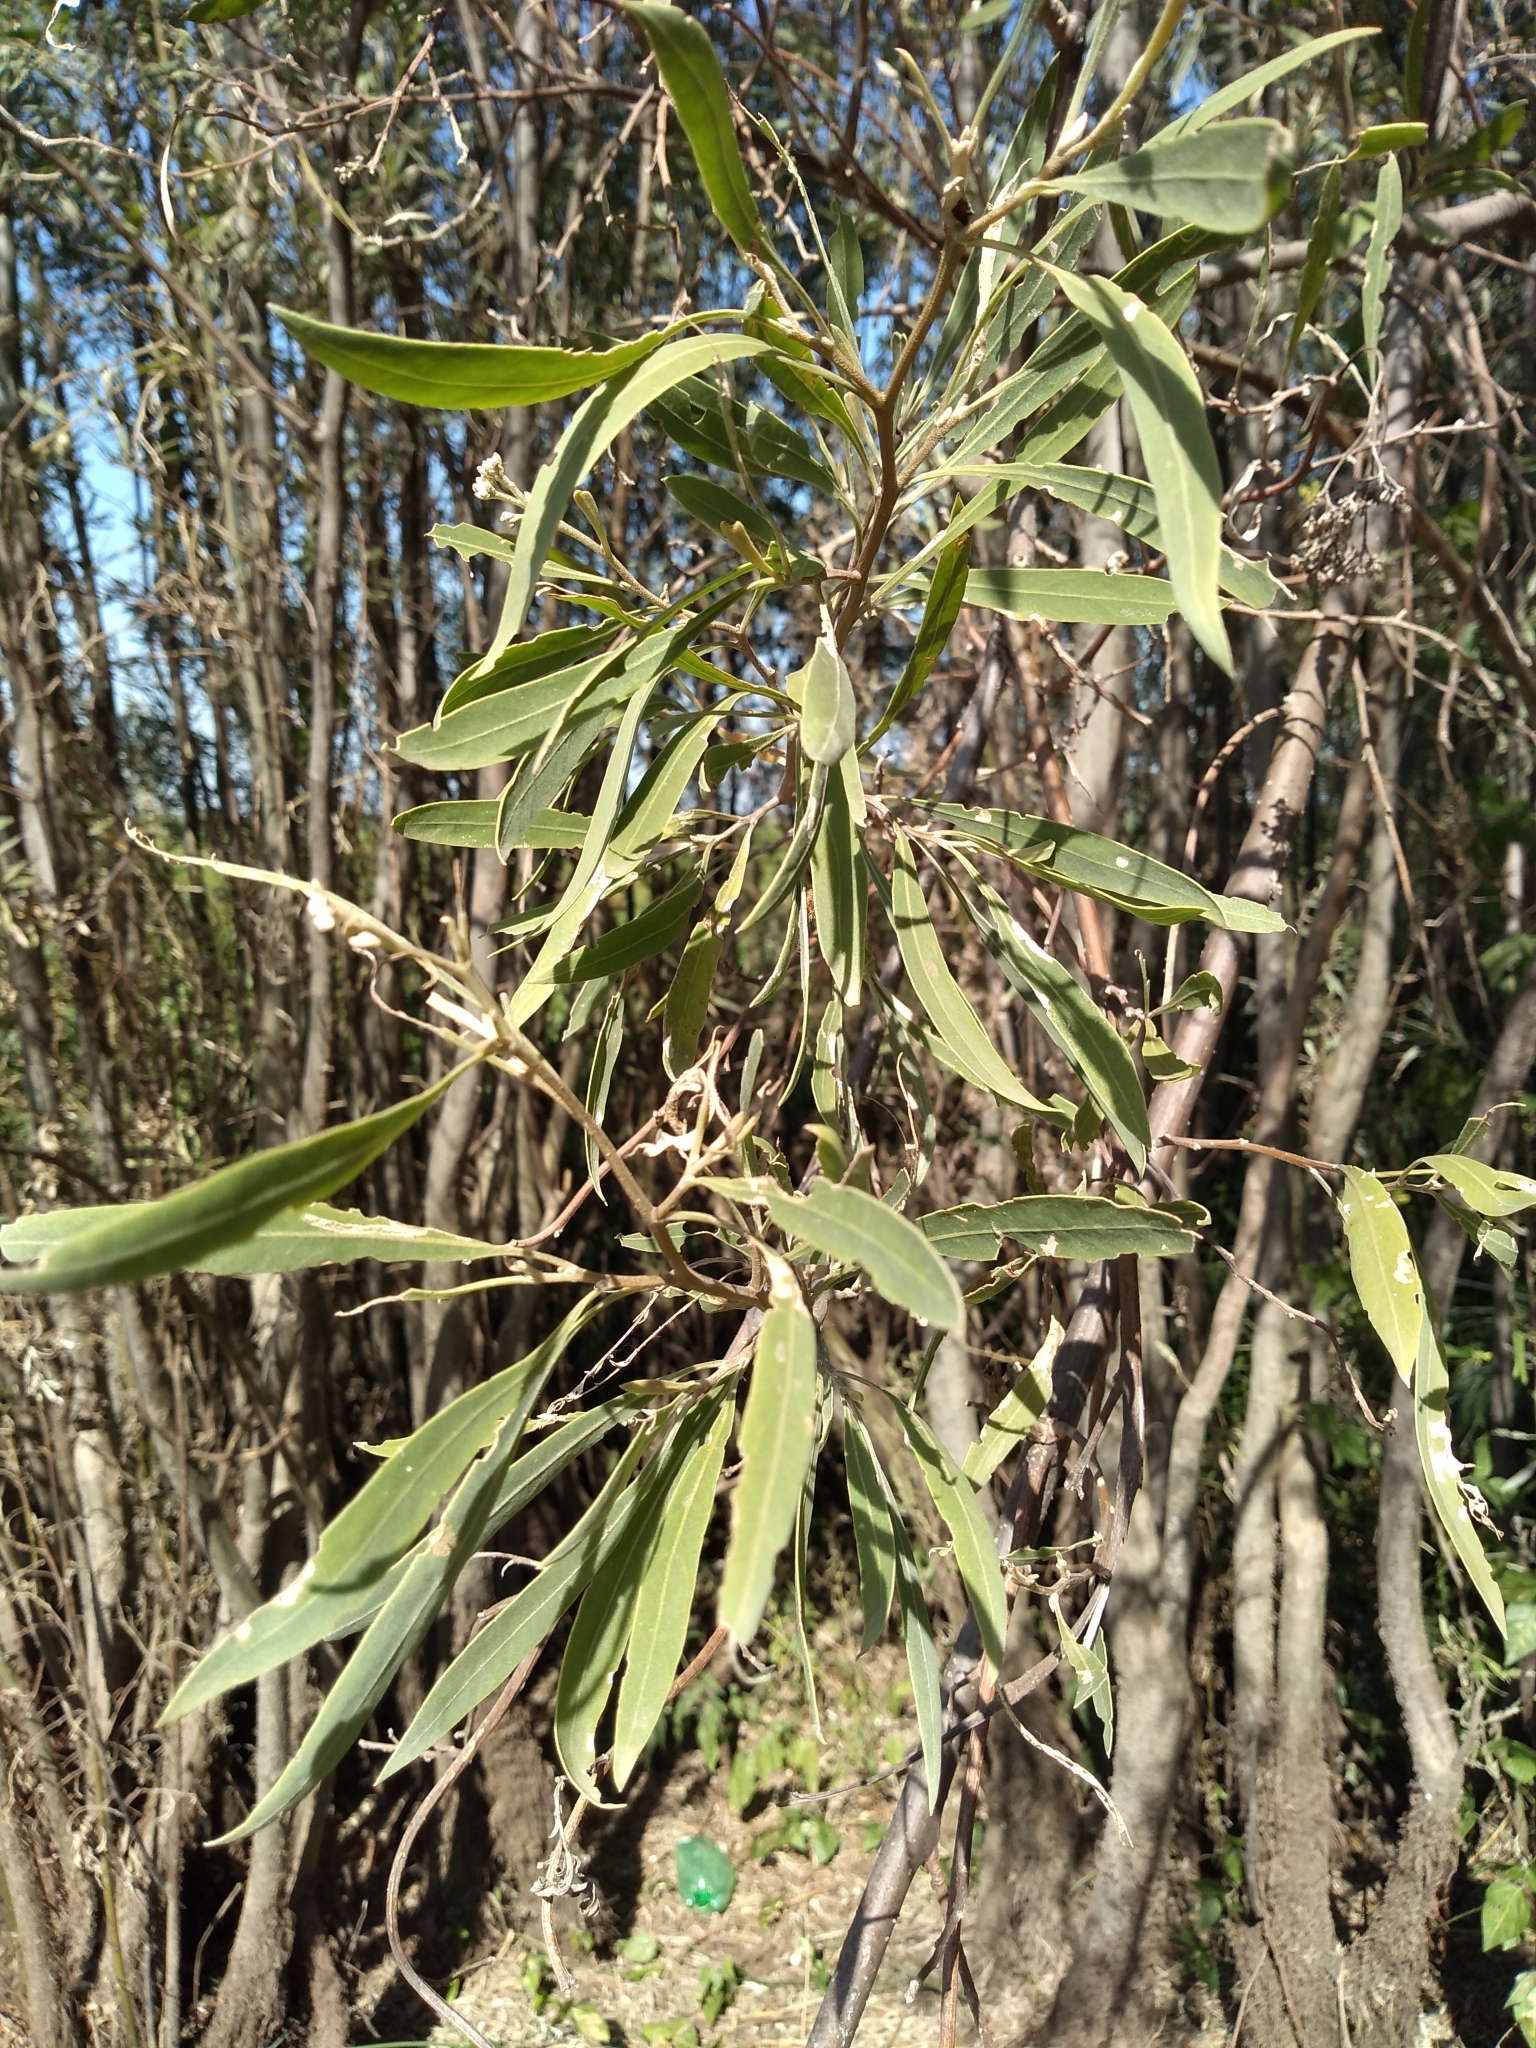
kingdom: Plantae
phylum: Tracheophyta
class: Magnoliopsida
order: Asterales
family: Asteraceae
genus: Tessaria
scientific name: Tessaria integrifolia
